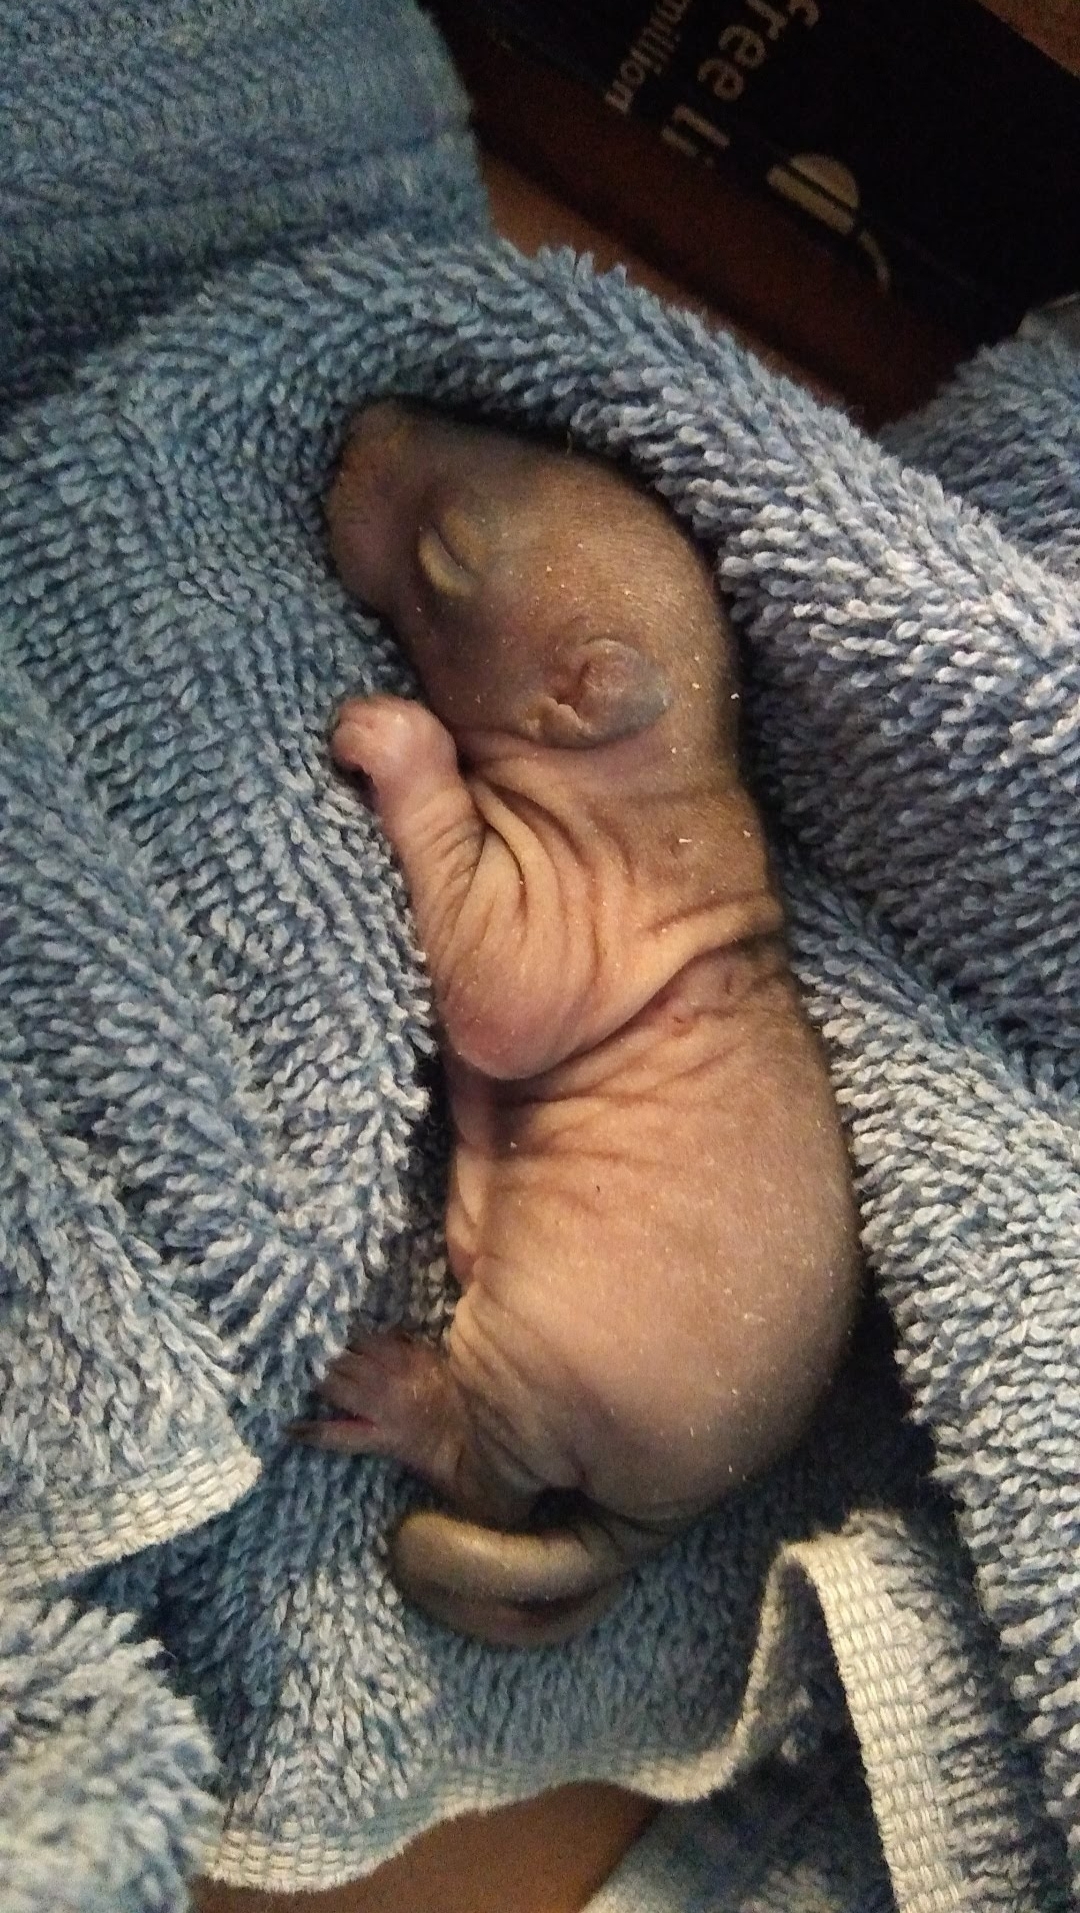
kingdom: Animalia
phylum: Chordata
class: Mammalia
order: Rodentia
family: Sciuridae
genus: Sciurus
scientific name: Sciurus carolinensis
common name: Eastern gray squirrel
